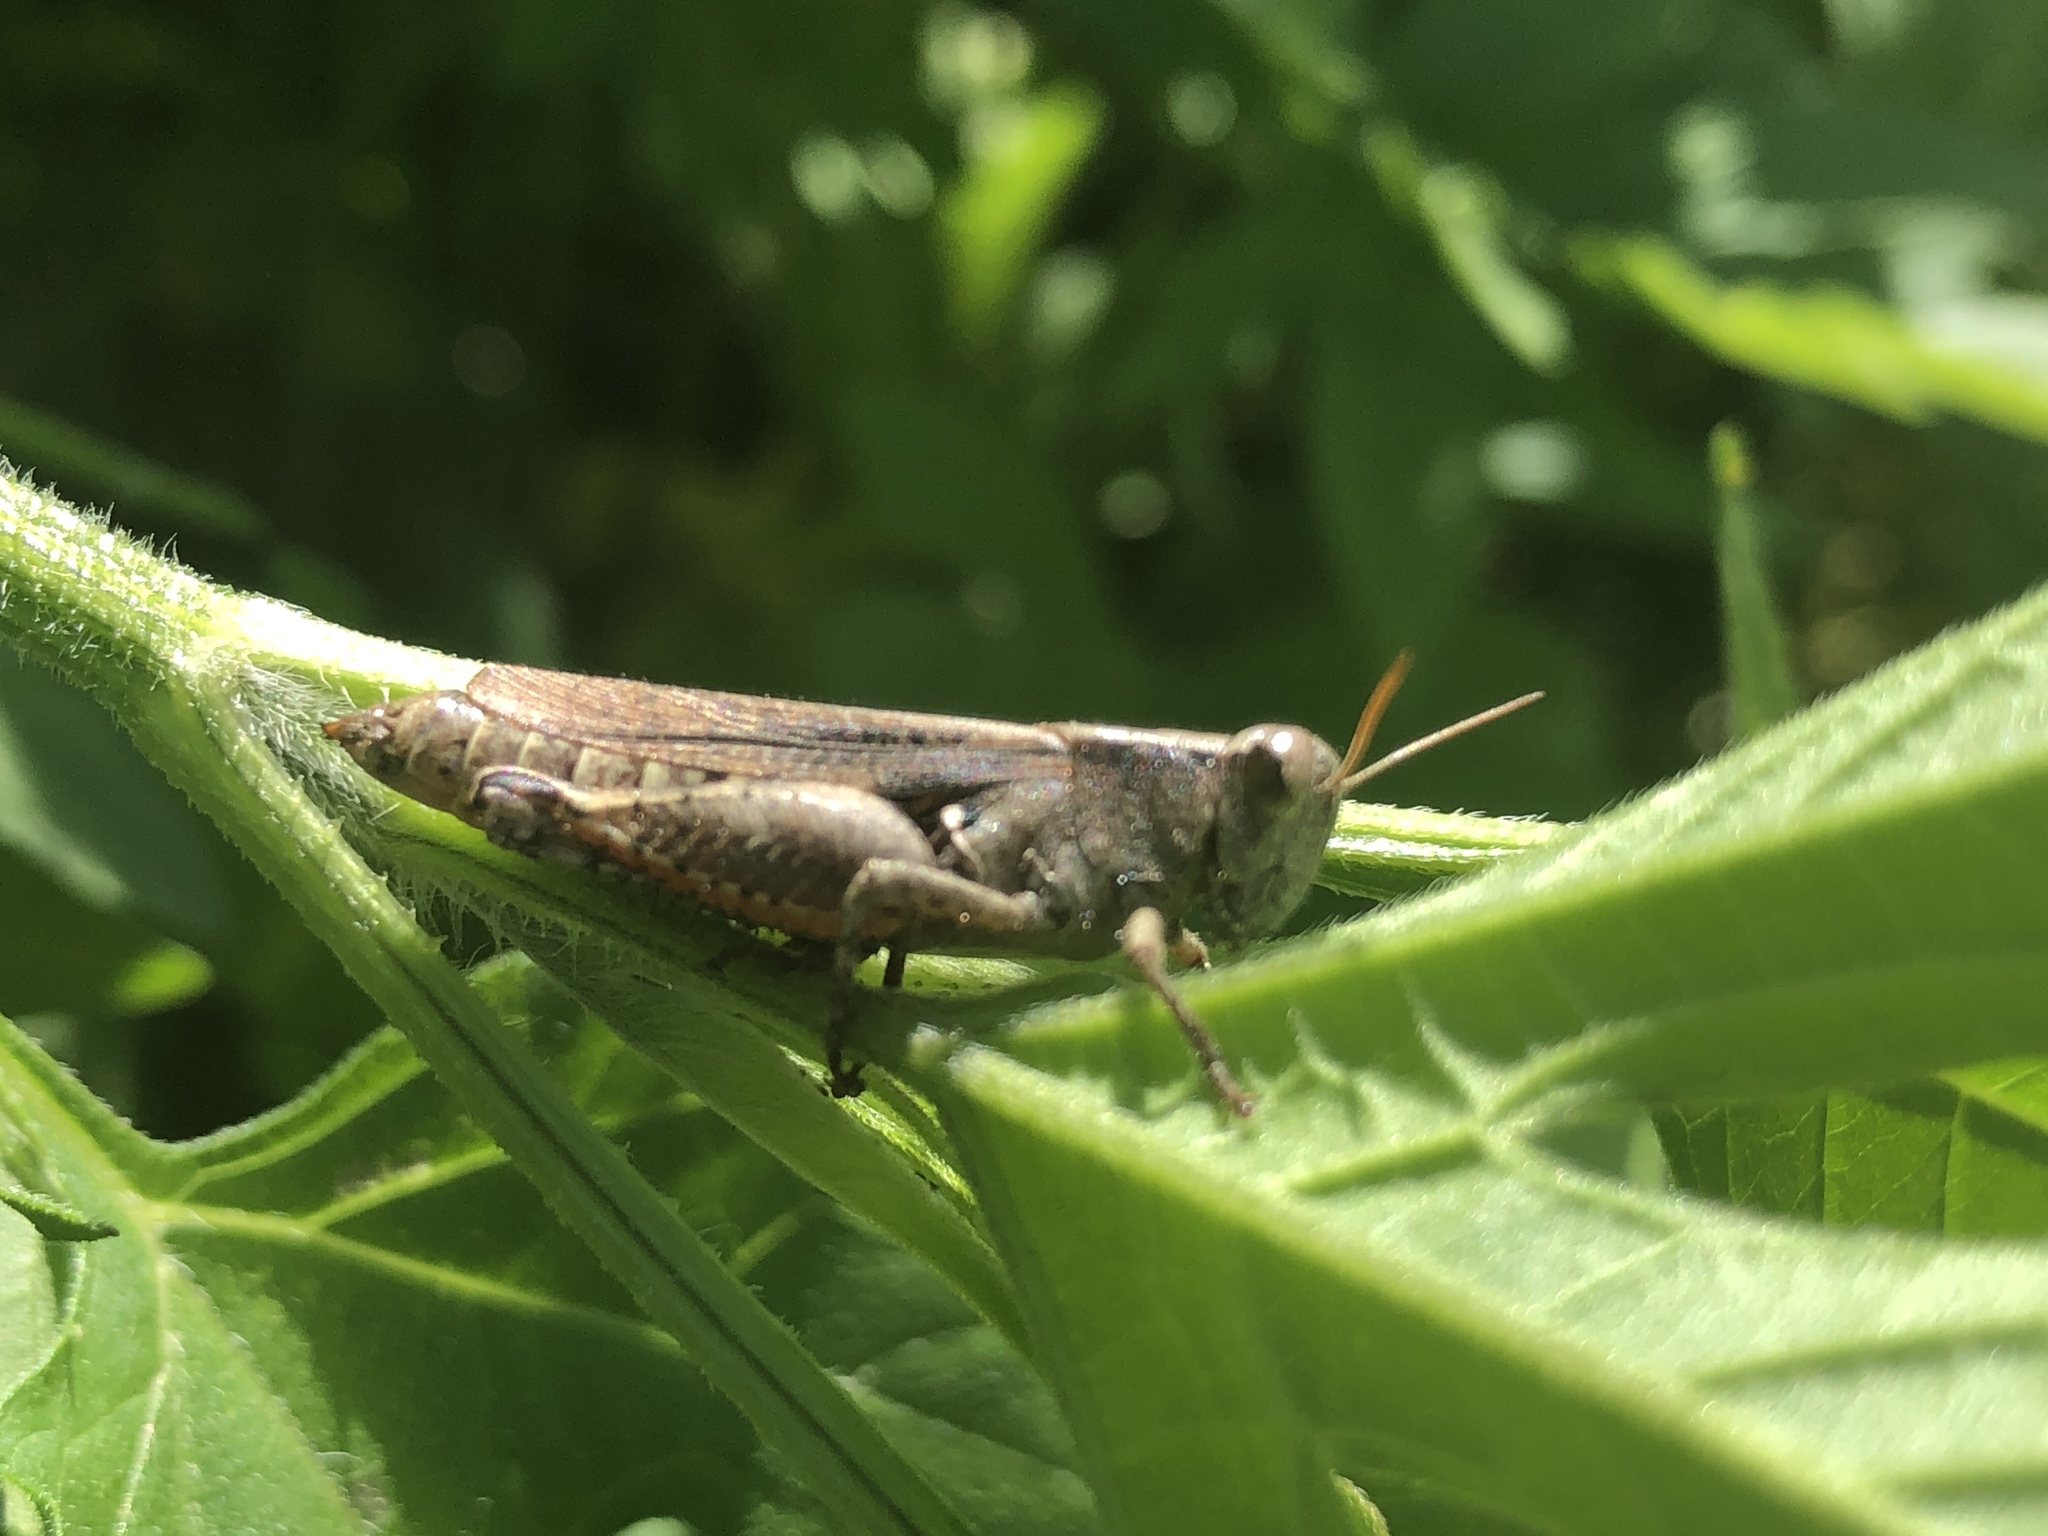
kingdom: Animalia
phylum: Arthropoda
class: Insecta
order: Orthoptera
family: Acrididae
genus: Aidemona
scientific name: Aidemona azteca
